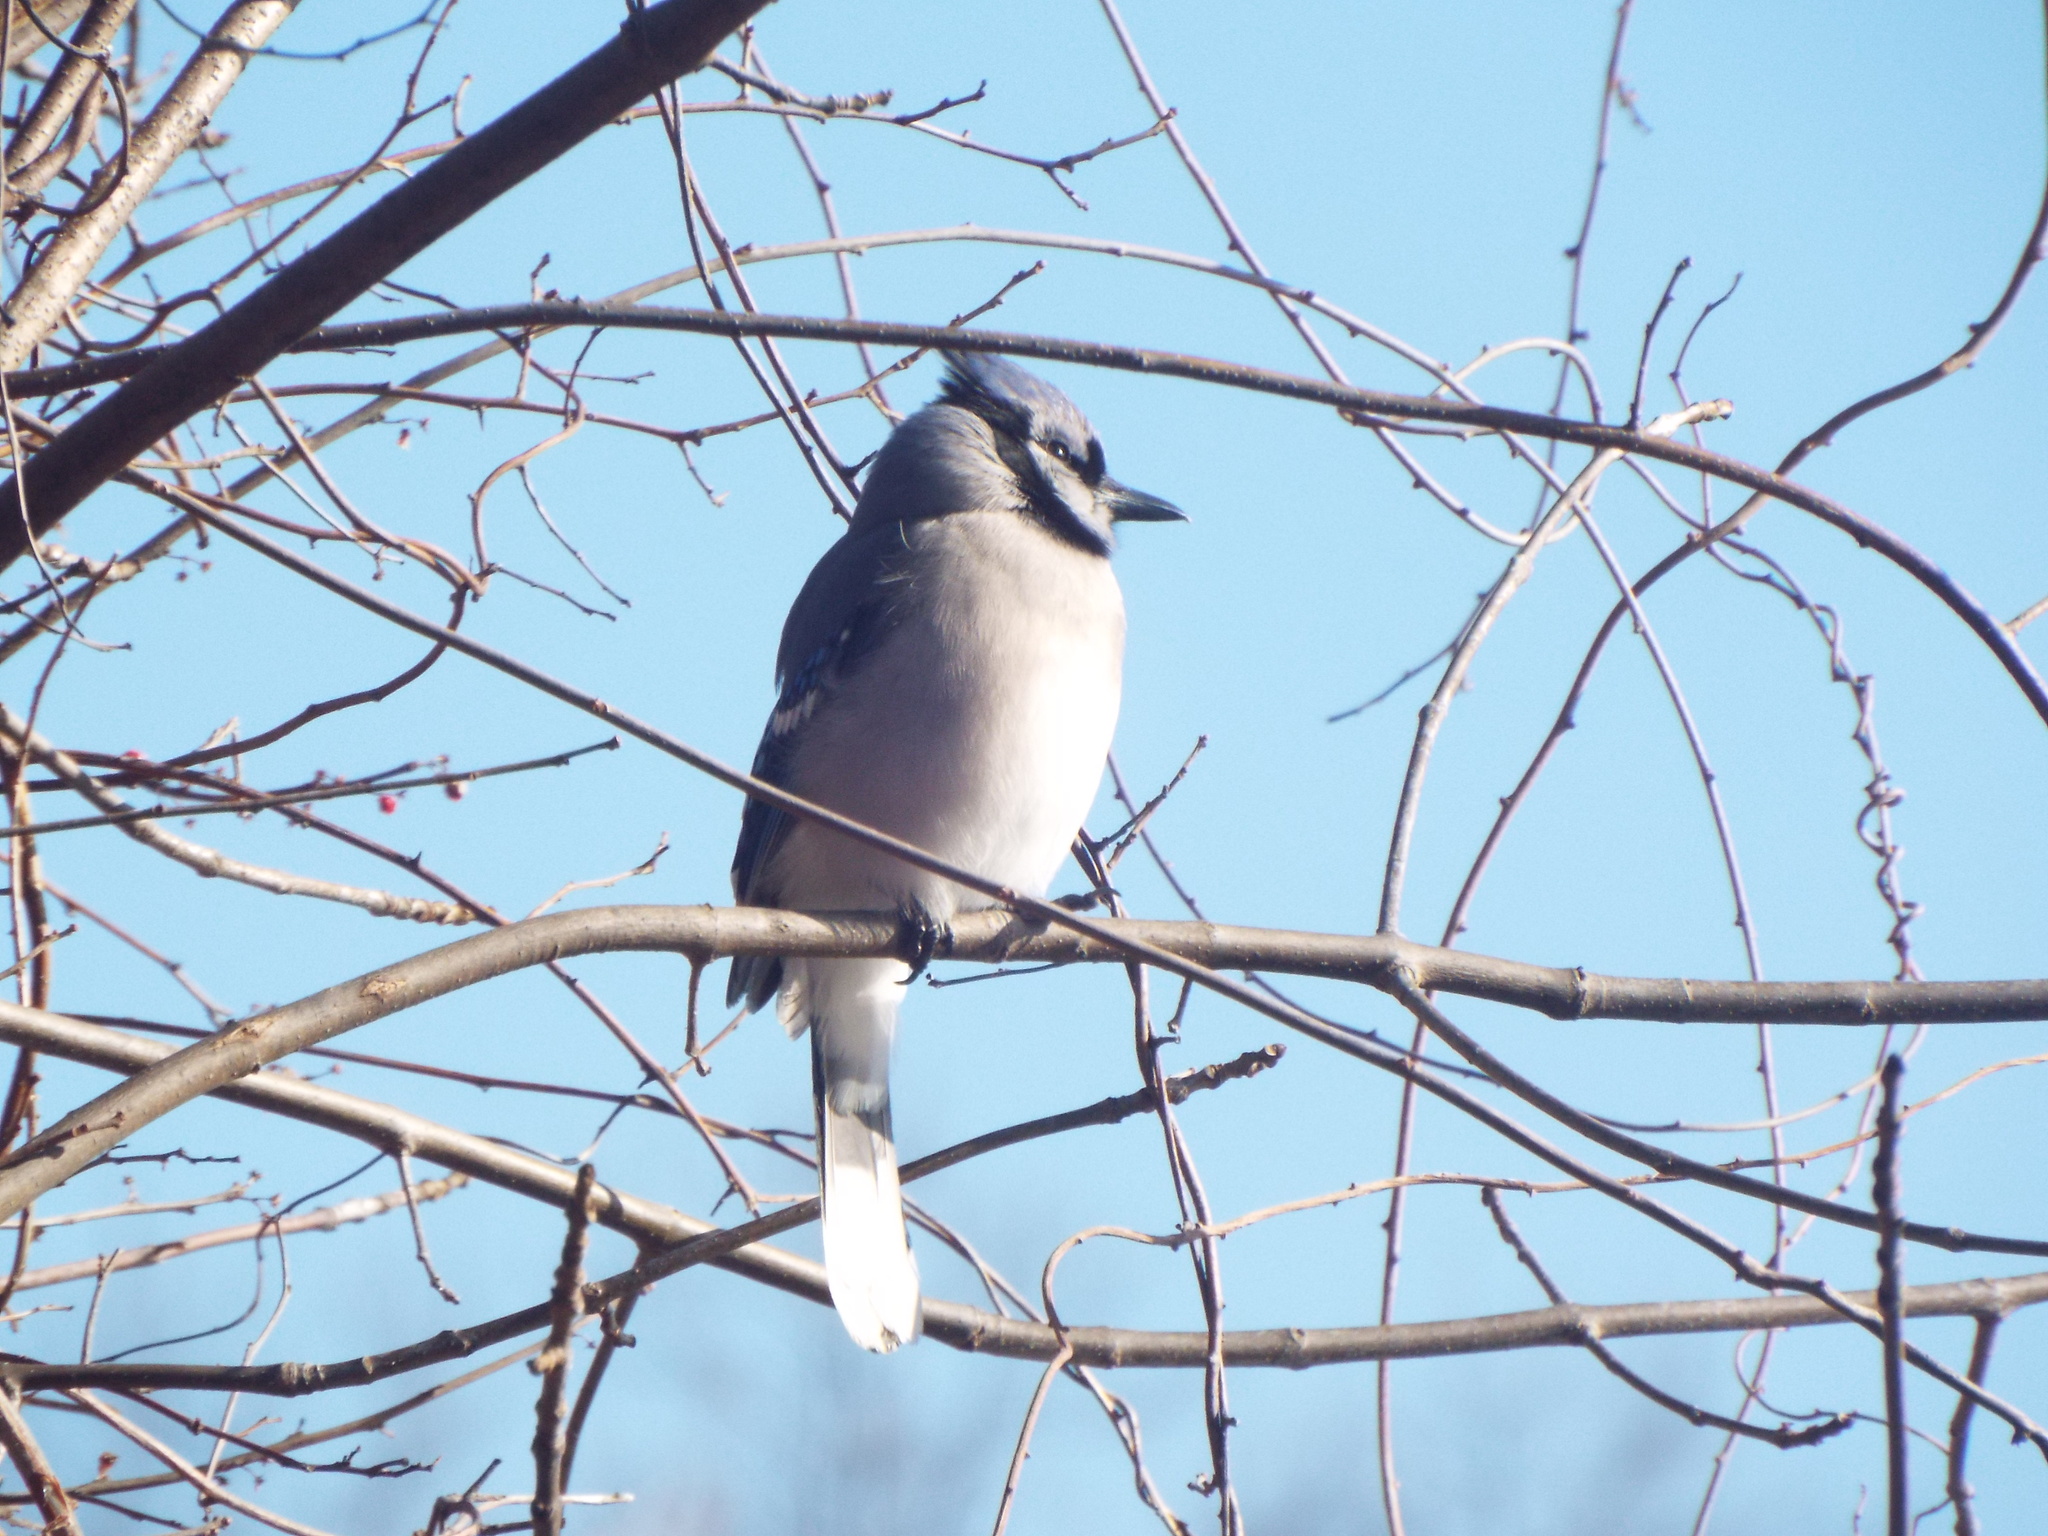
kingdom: Animalia
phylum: Chordata
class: Aves
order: Passeriformes
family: Corvidae
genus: Cyanocitta
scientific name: Cyanocitta cristata
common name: Blue jay
